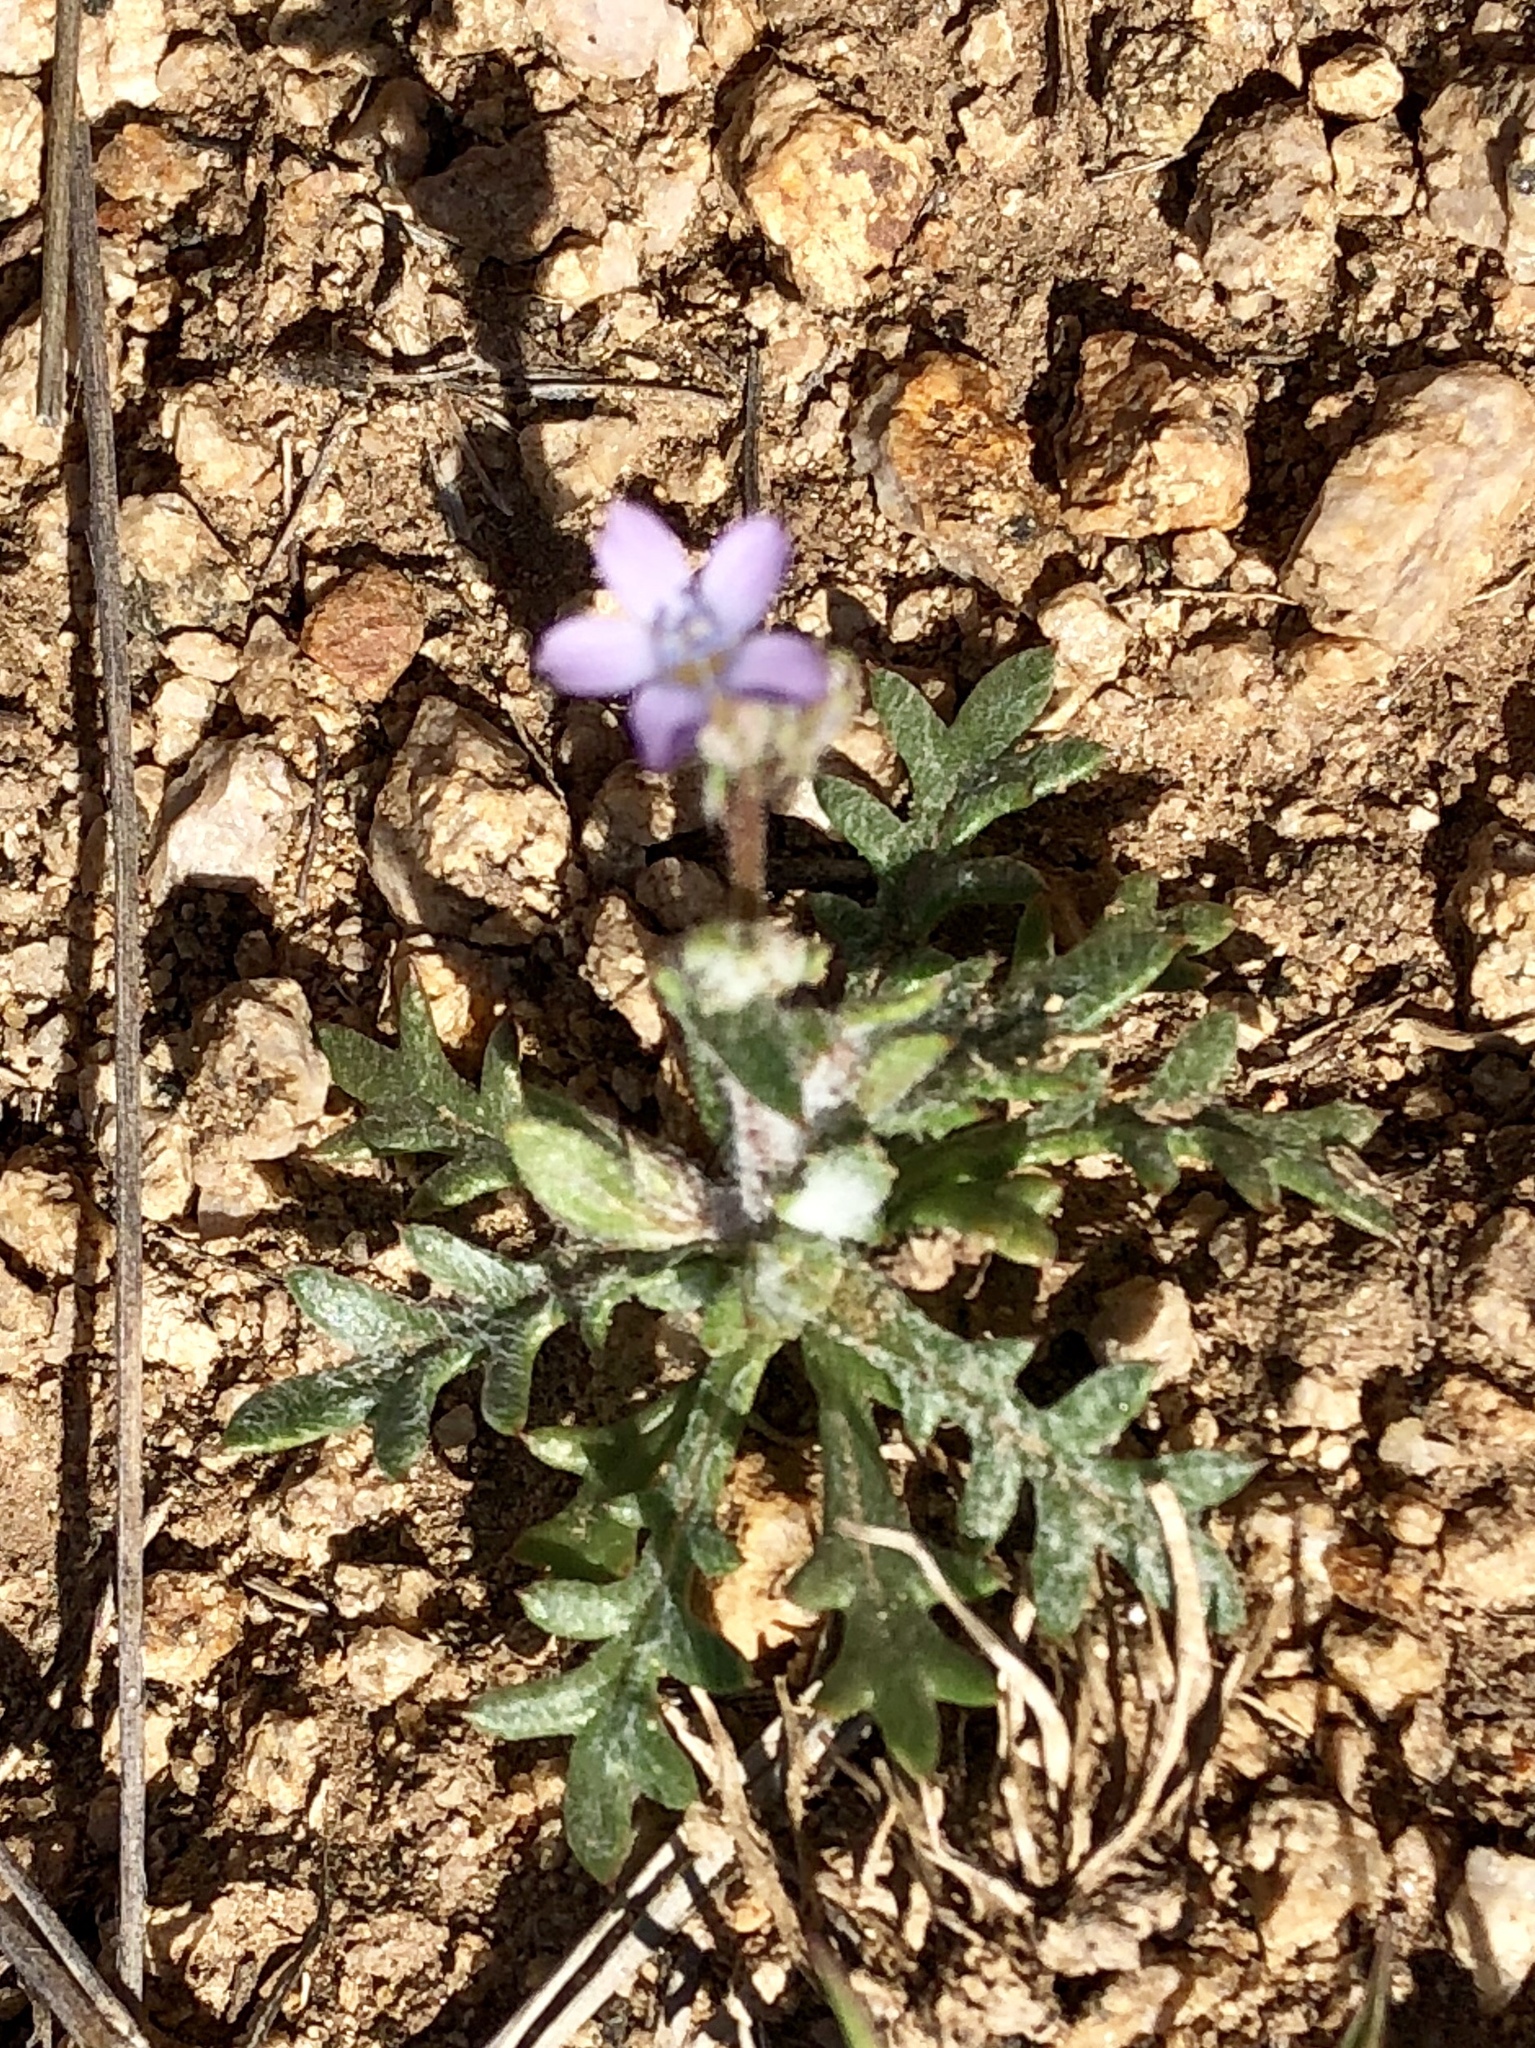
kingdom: Plantae
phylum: Tracheophyta
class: Magnoliopsida
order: Ericales
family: Polemoniaceae
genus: Gilia
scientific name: Gilia mexicana
